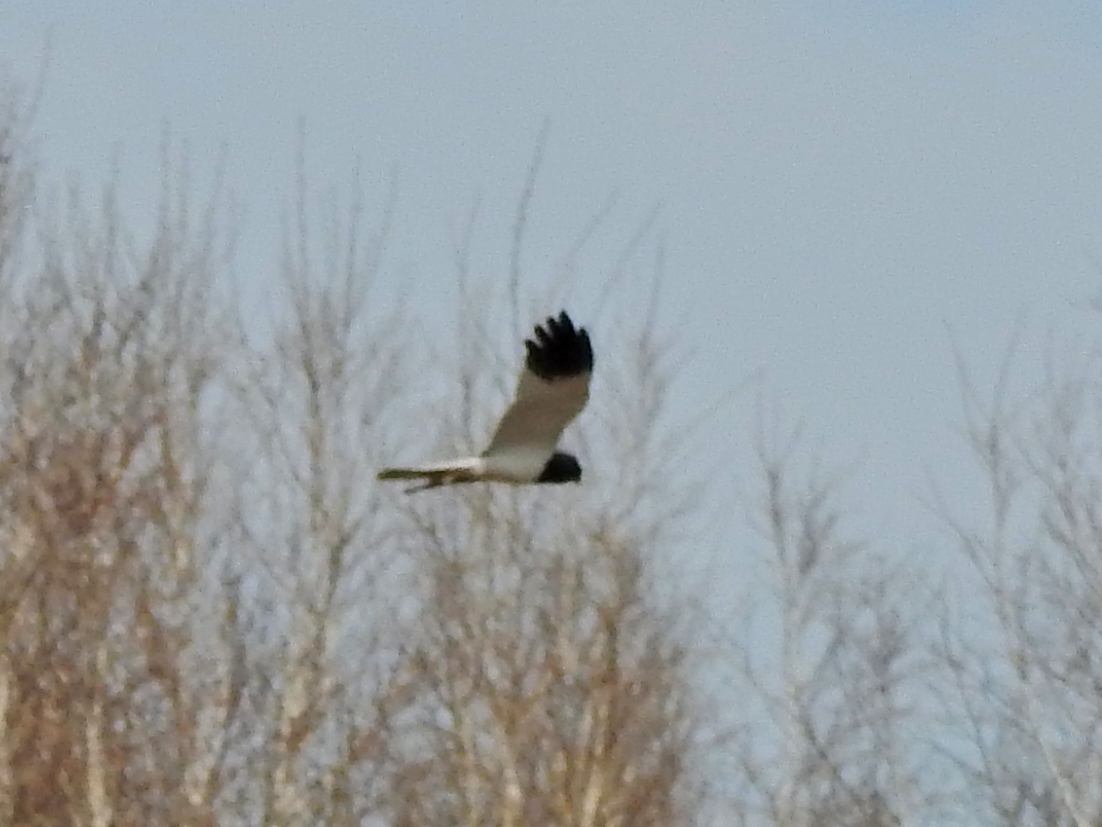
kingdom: Animalia
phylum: Chordata
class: Aves
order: Accipitriformes
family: Accipitridae
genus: Circus
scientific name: Circus melanoleucos
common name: Pied harrier
